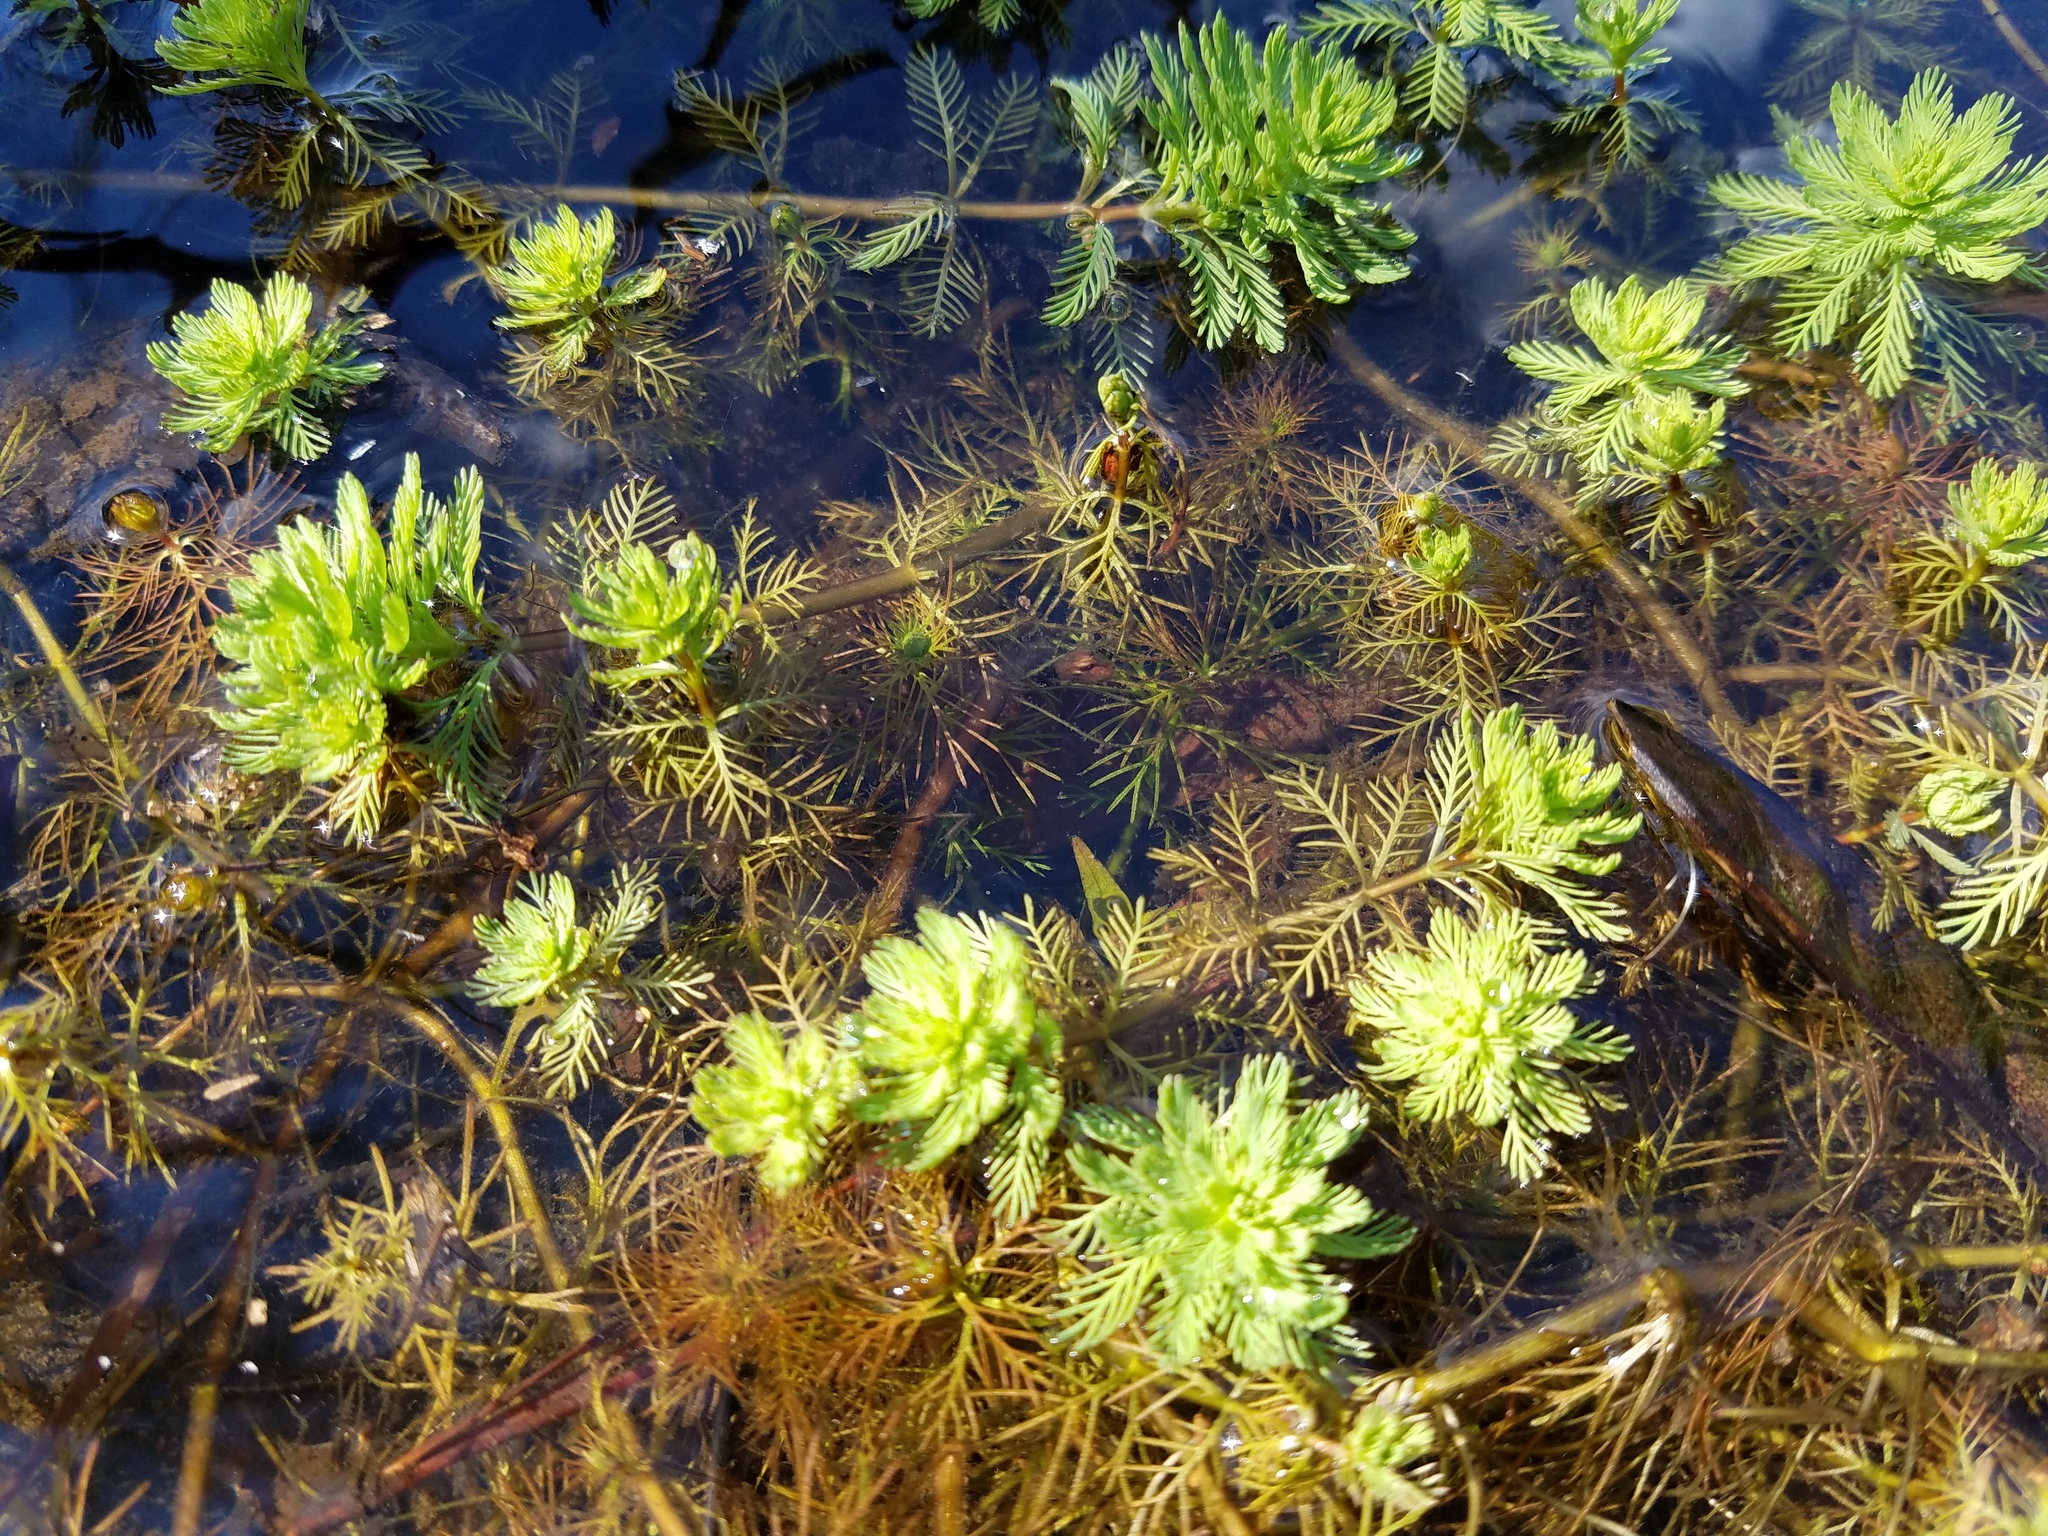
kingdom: Plantae
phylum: Tracheophyta
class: Magnoliopsida
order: Saxifragales
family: Haloragaceae
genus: Myriophyllum
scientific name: Myriophyllum aquaticum
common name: Parrot's feather
